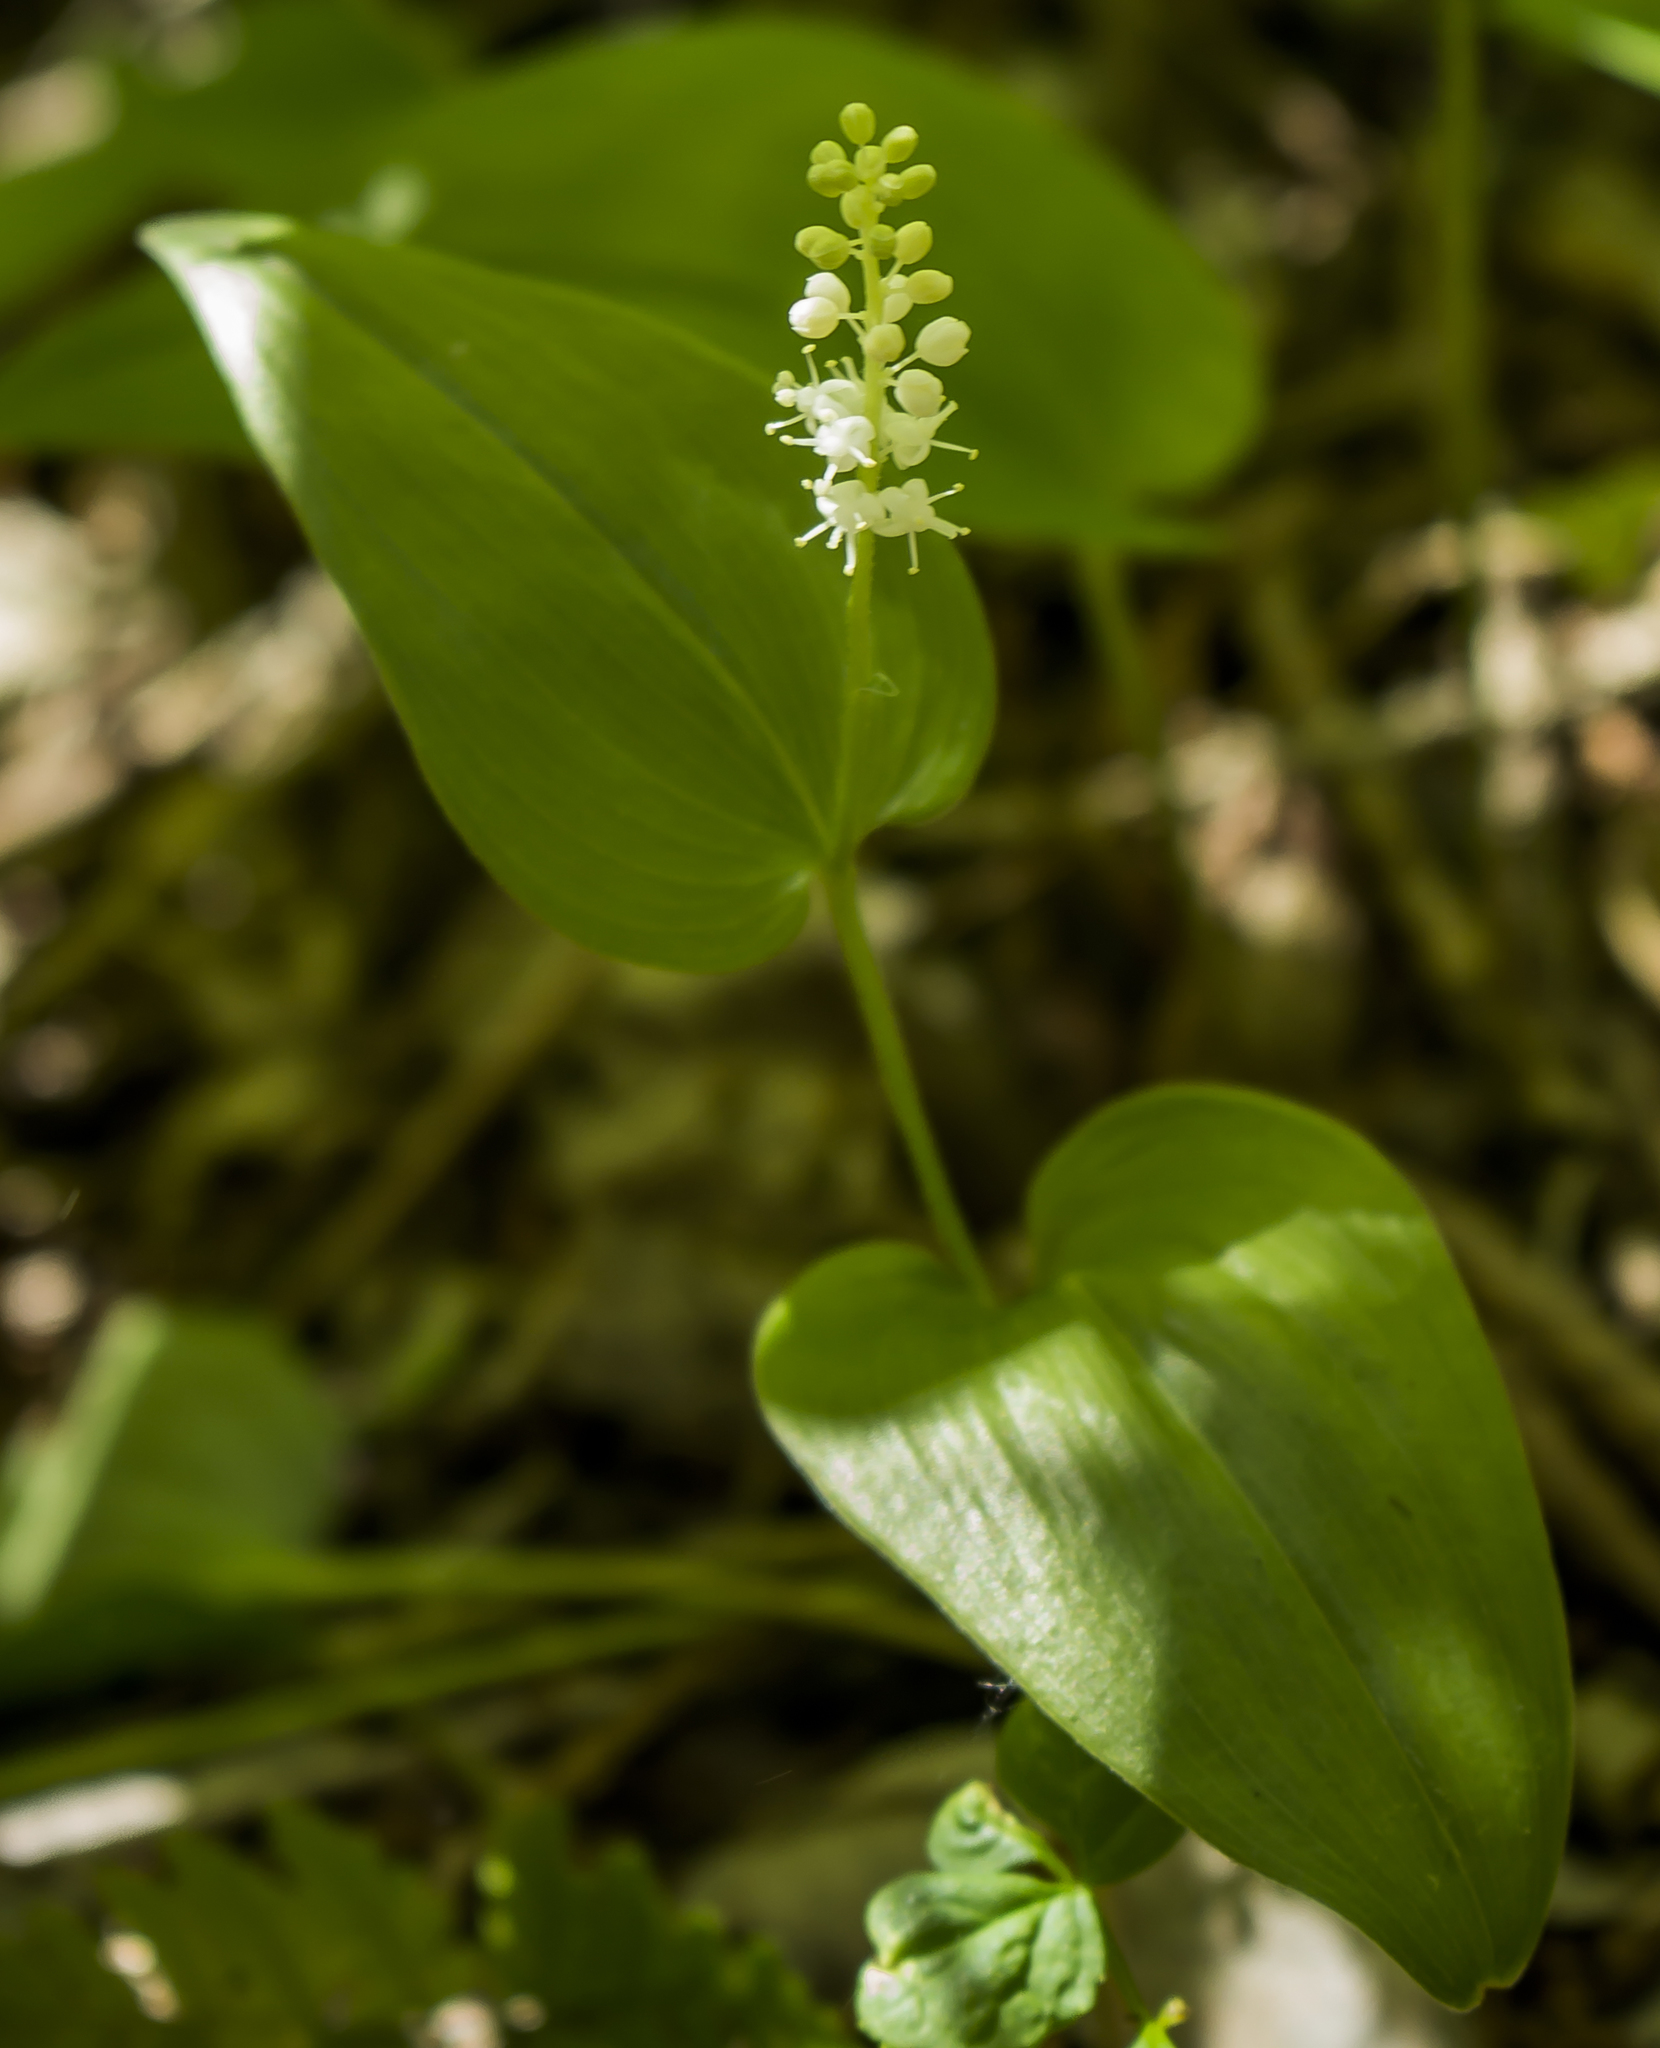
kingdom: Plantae
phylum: Tracheophyta
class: Liliopsida
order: Asparagales
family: Asparagaceae
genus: Maianthemum
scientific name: Maianthemum canadense
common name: False lily-of-the-valley
